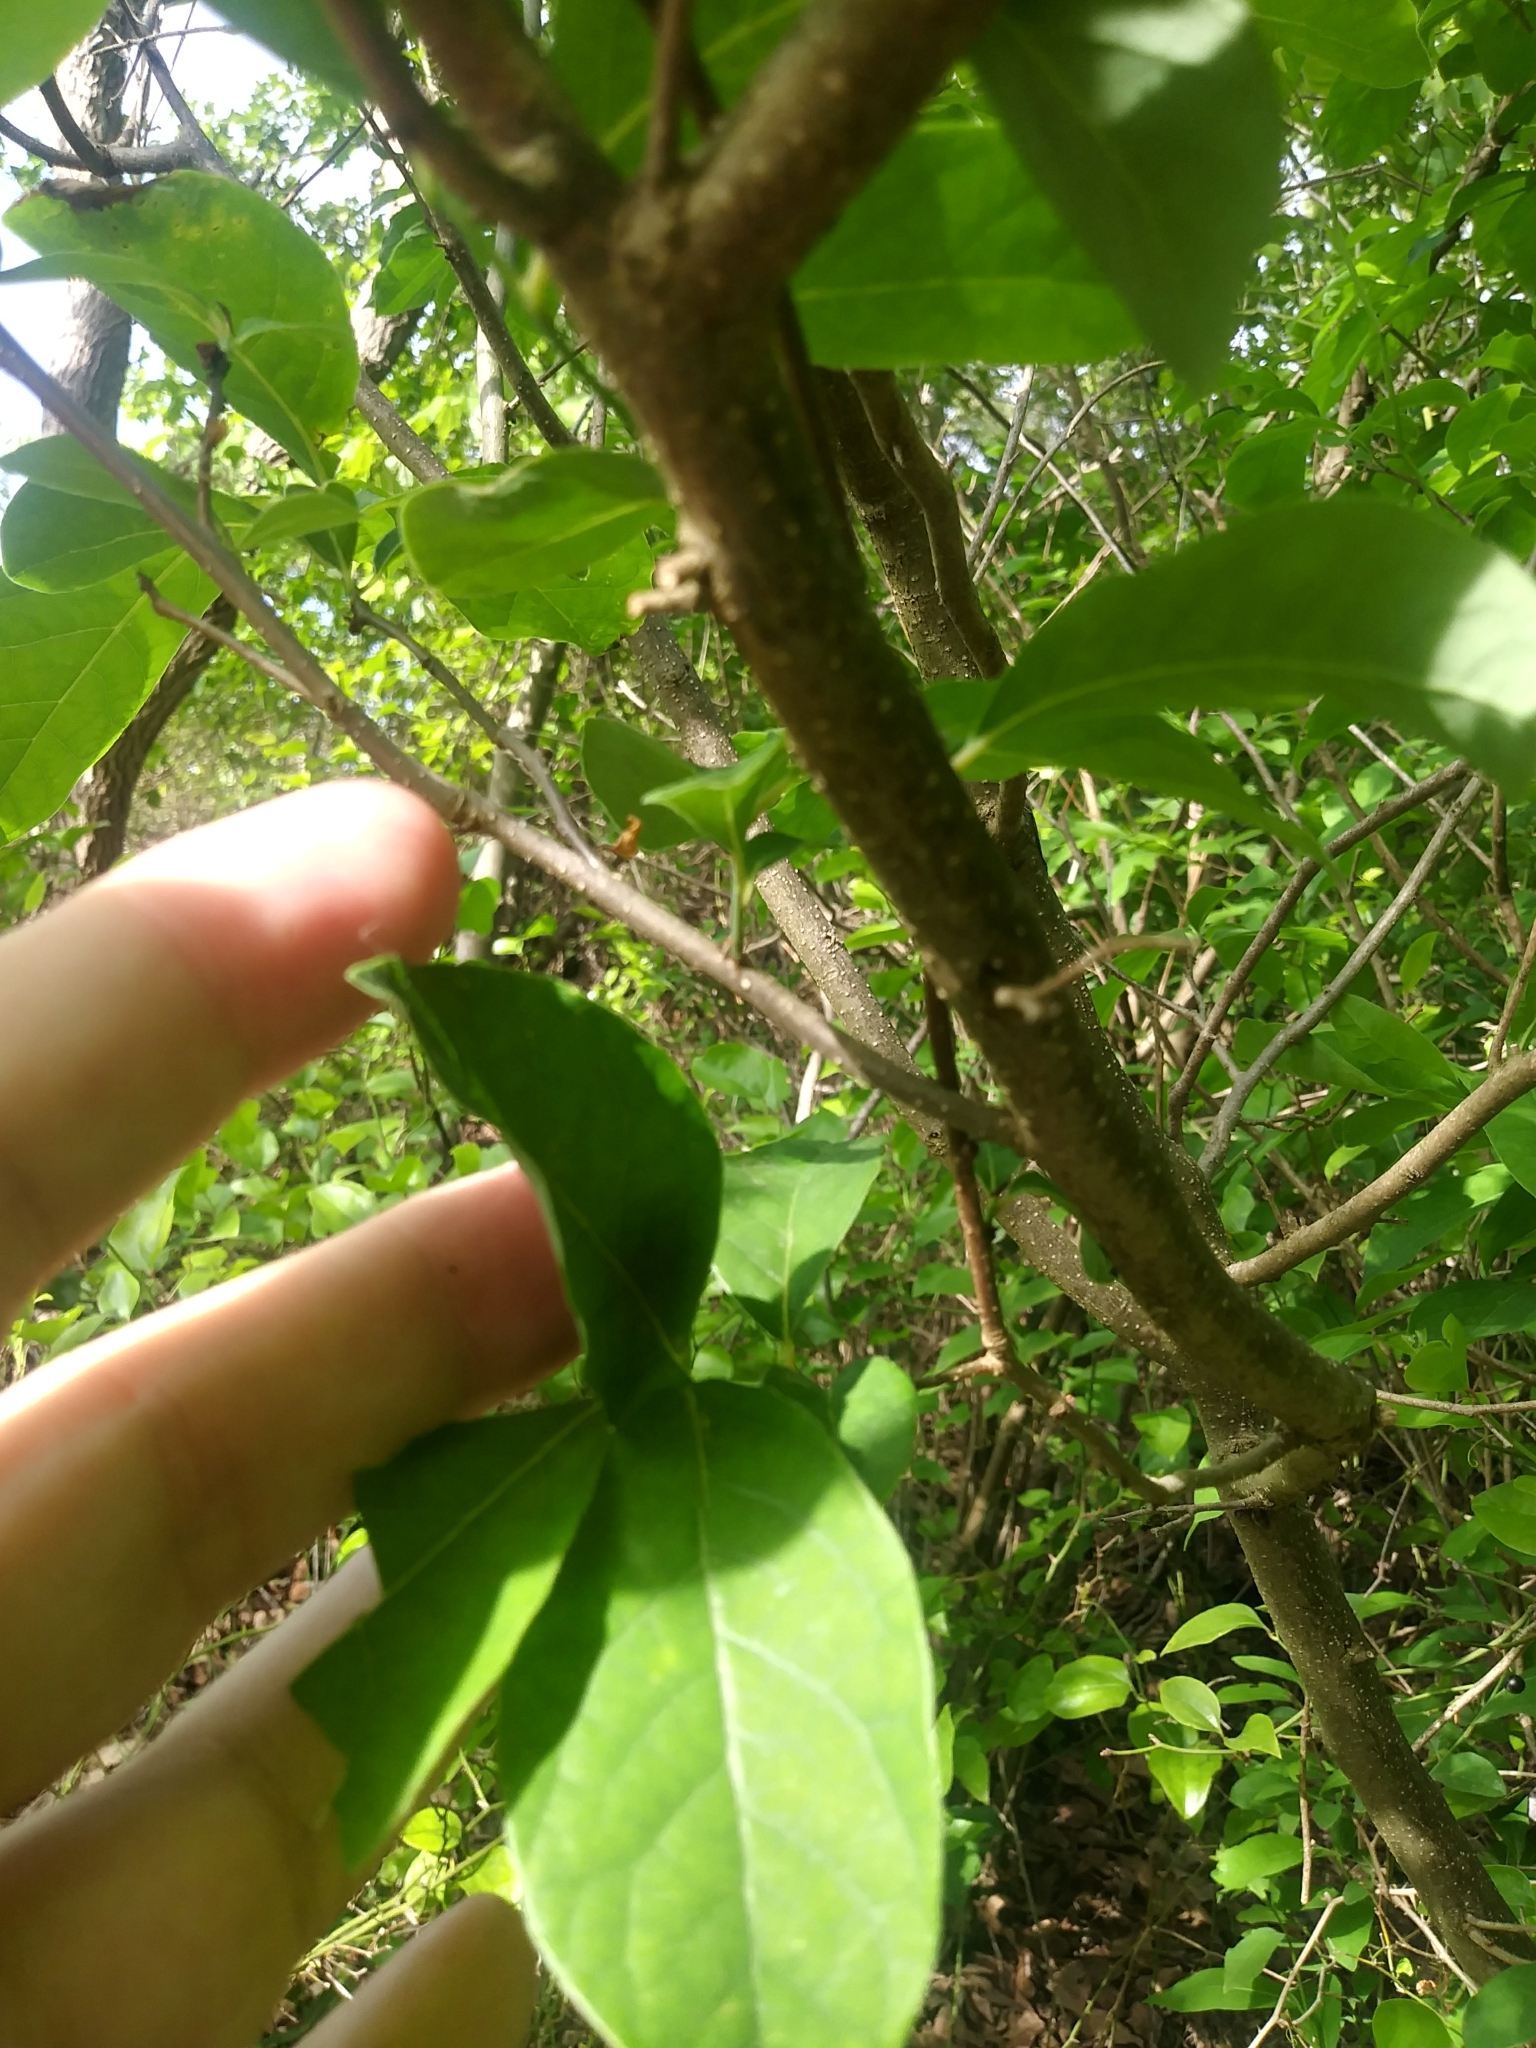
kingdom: Plantae
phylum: Tracheophyta
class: Magnoliopsida
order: Laurales
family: Lauraceae
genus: Lindera
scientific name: Lindera benzoin
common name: Spicebush
